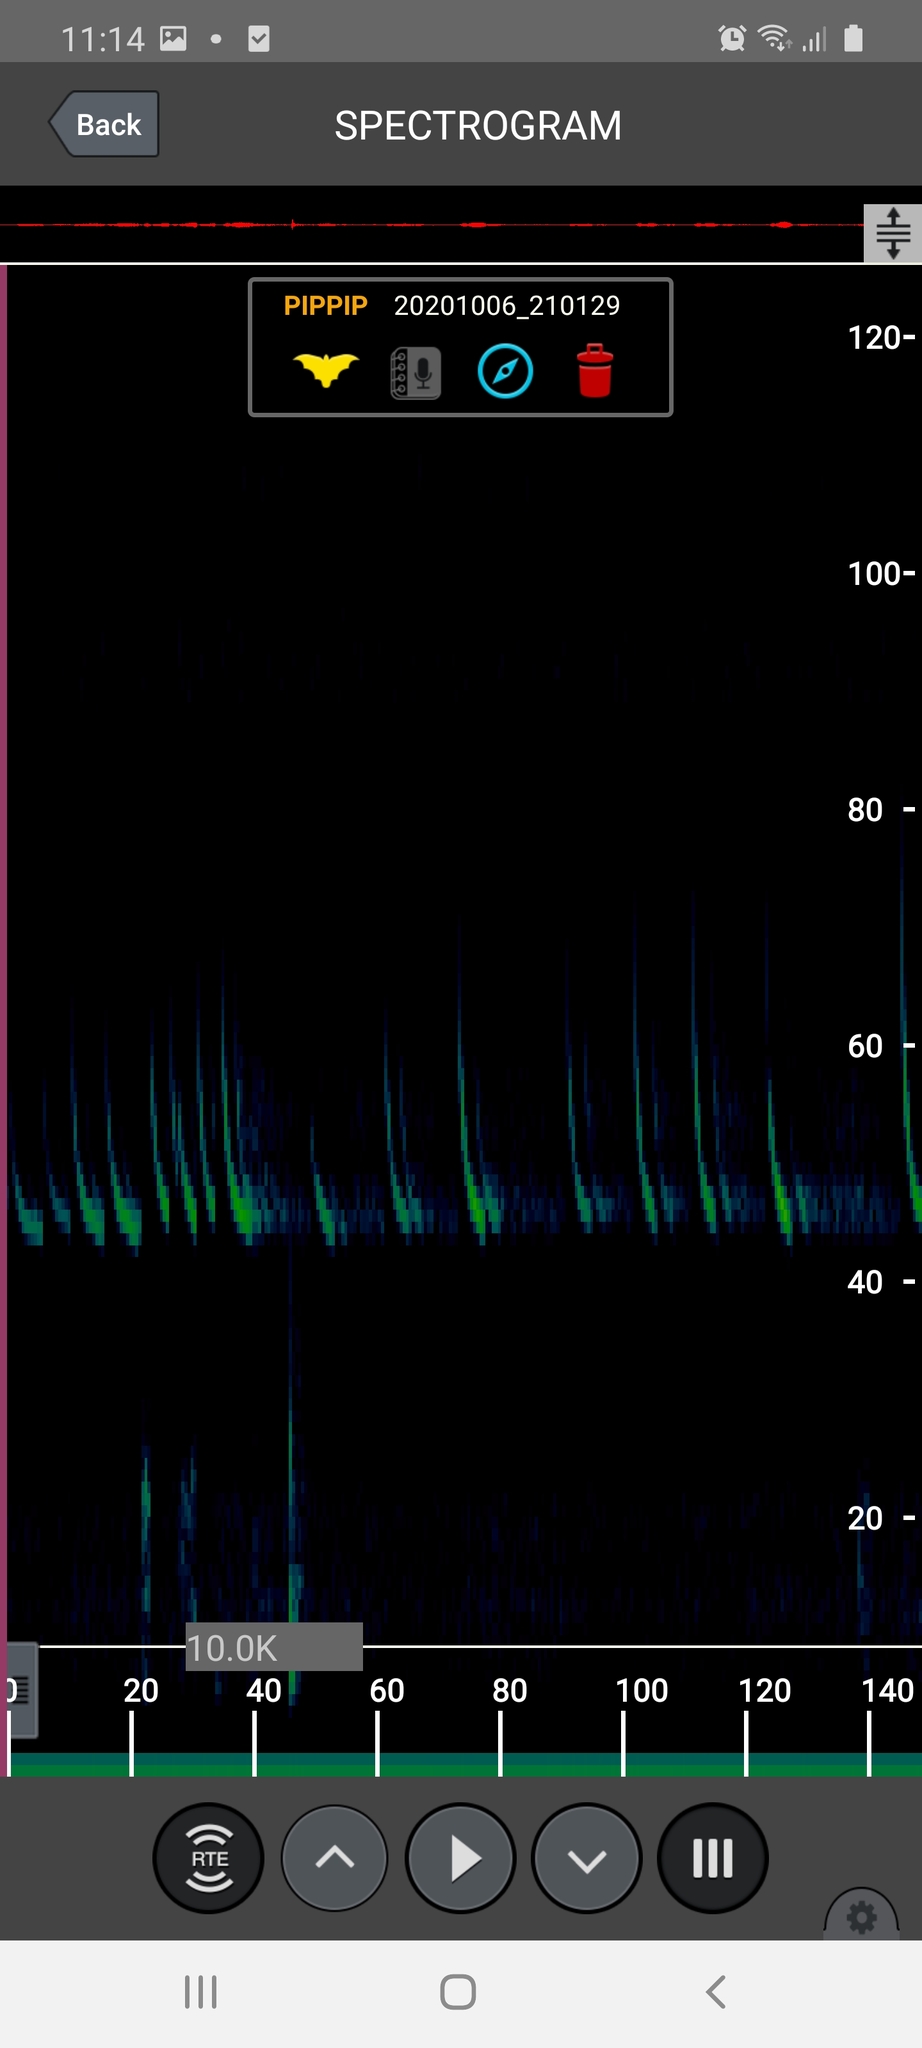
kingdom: Animalia
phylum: Chordata
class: Mammalia
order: Chiroptera
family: Vespertilionidae
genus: Pipistrellus
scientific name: Pipistrellus pipistrellus
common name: Common pipistrelle
